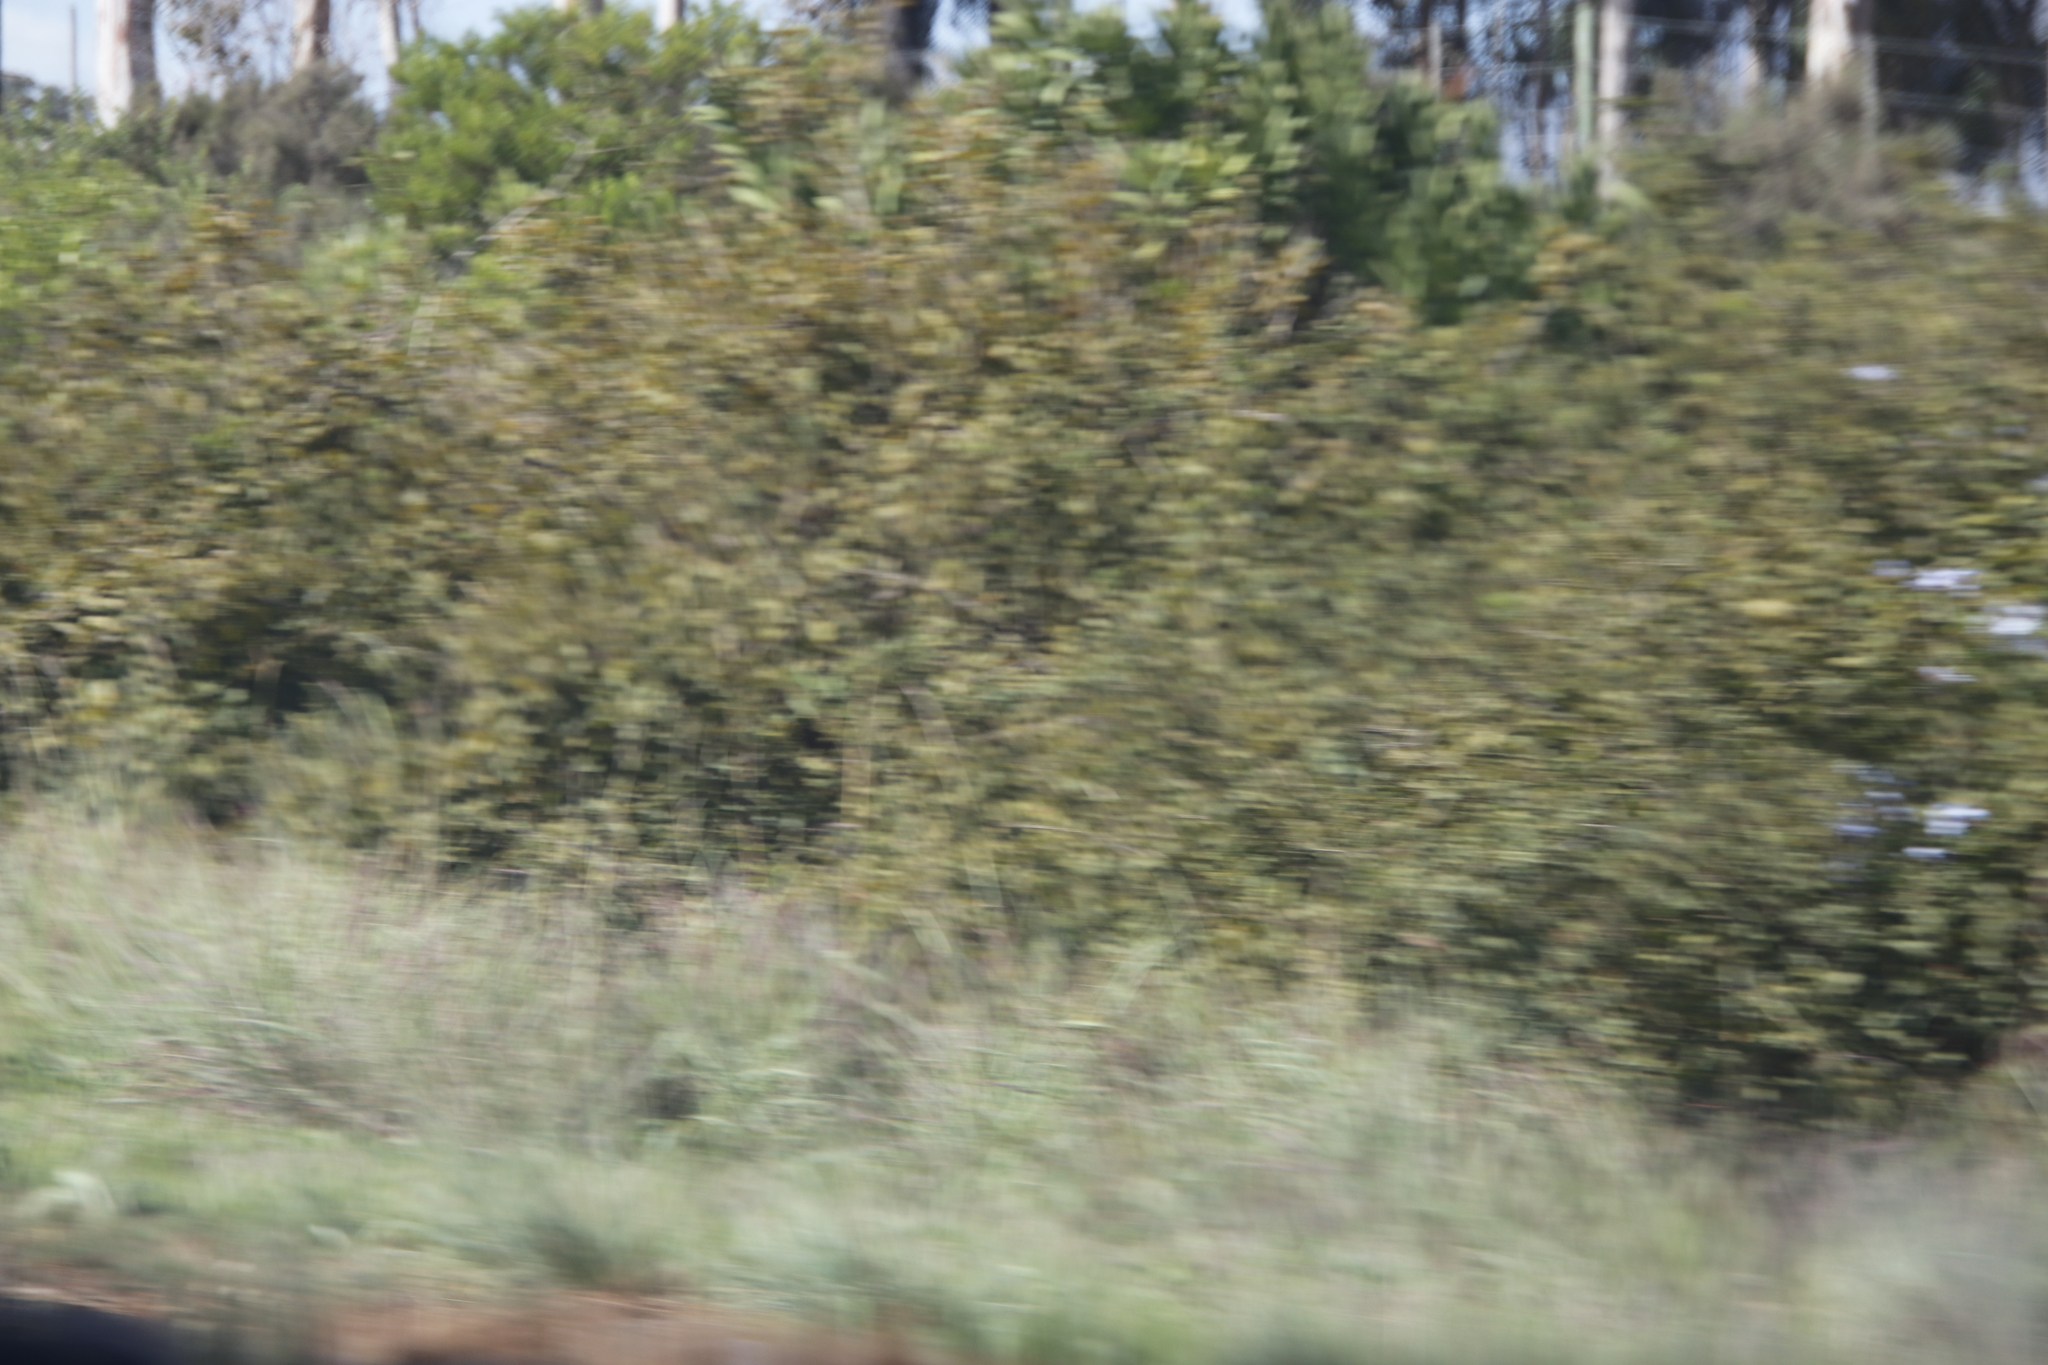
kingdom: Plantae
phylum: Tracheophyta
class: Magnoliopsida
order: Caryophyllales
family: Plumbaginaceae
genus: Plumbago
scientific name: Plumbago auriculata
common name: Cape leadwort
